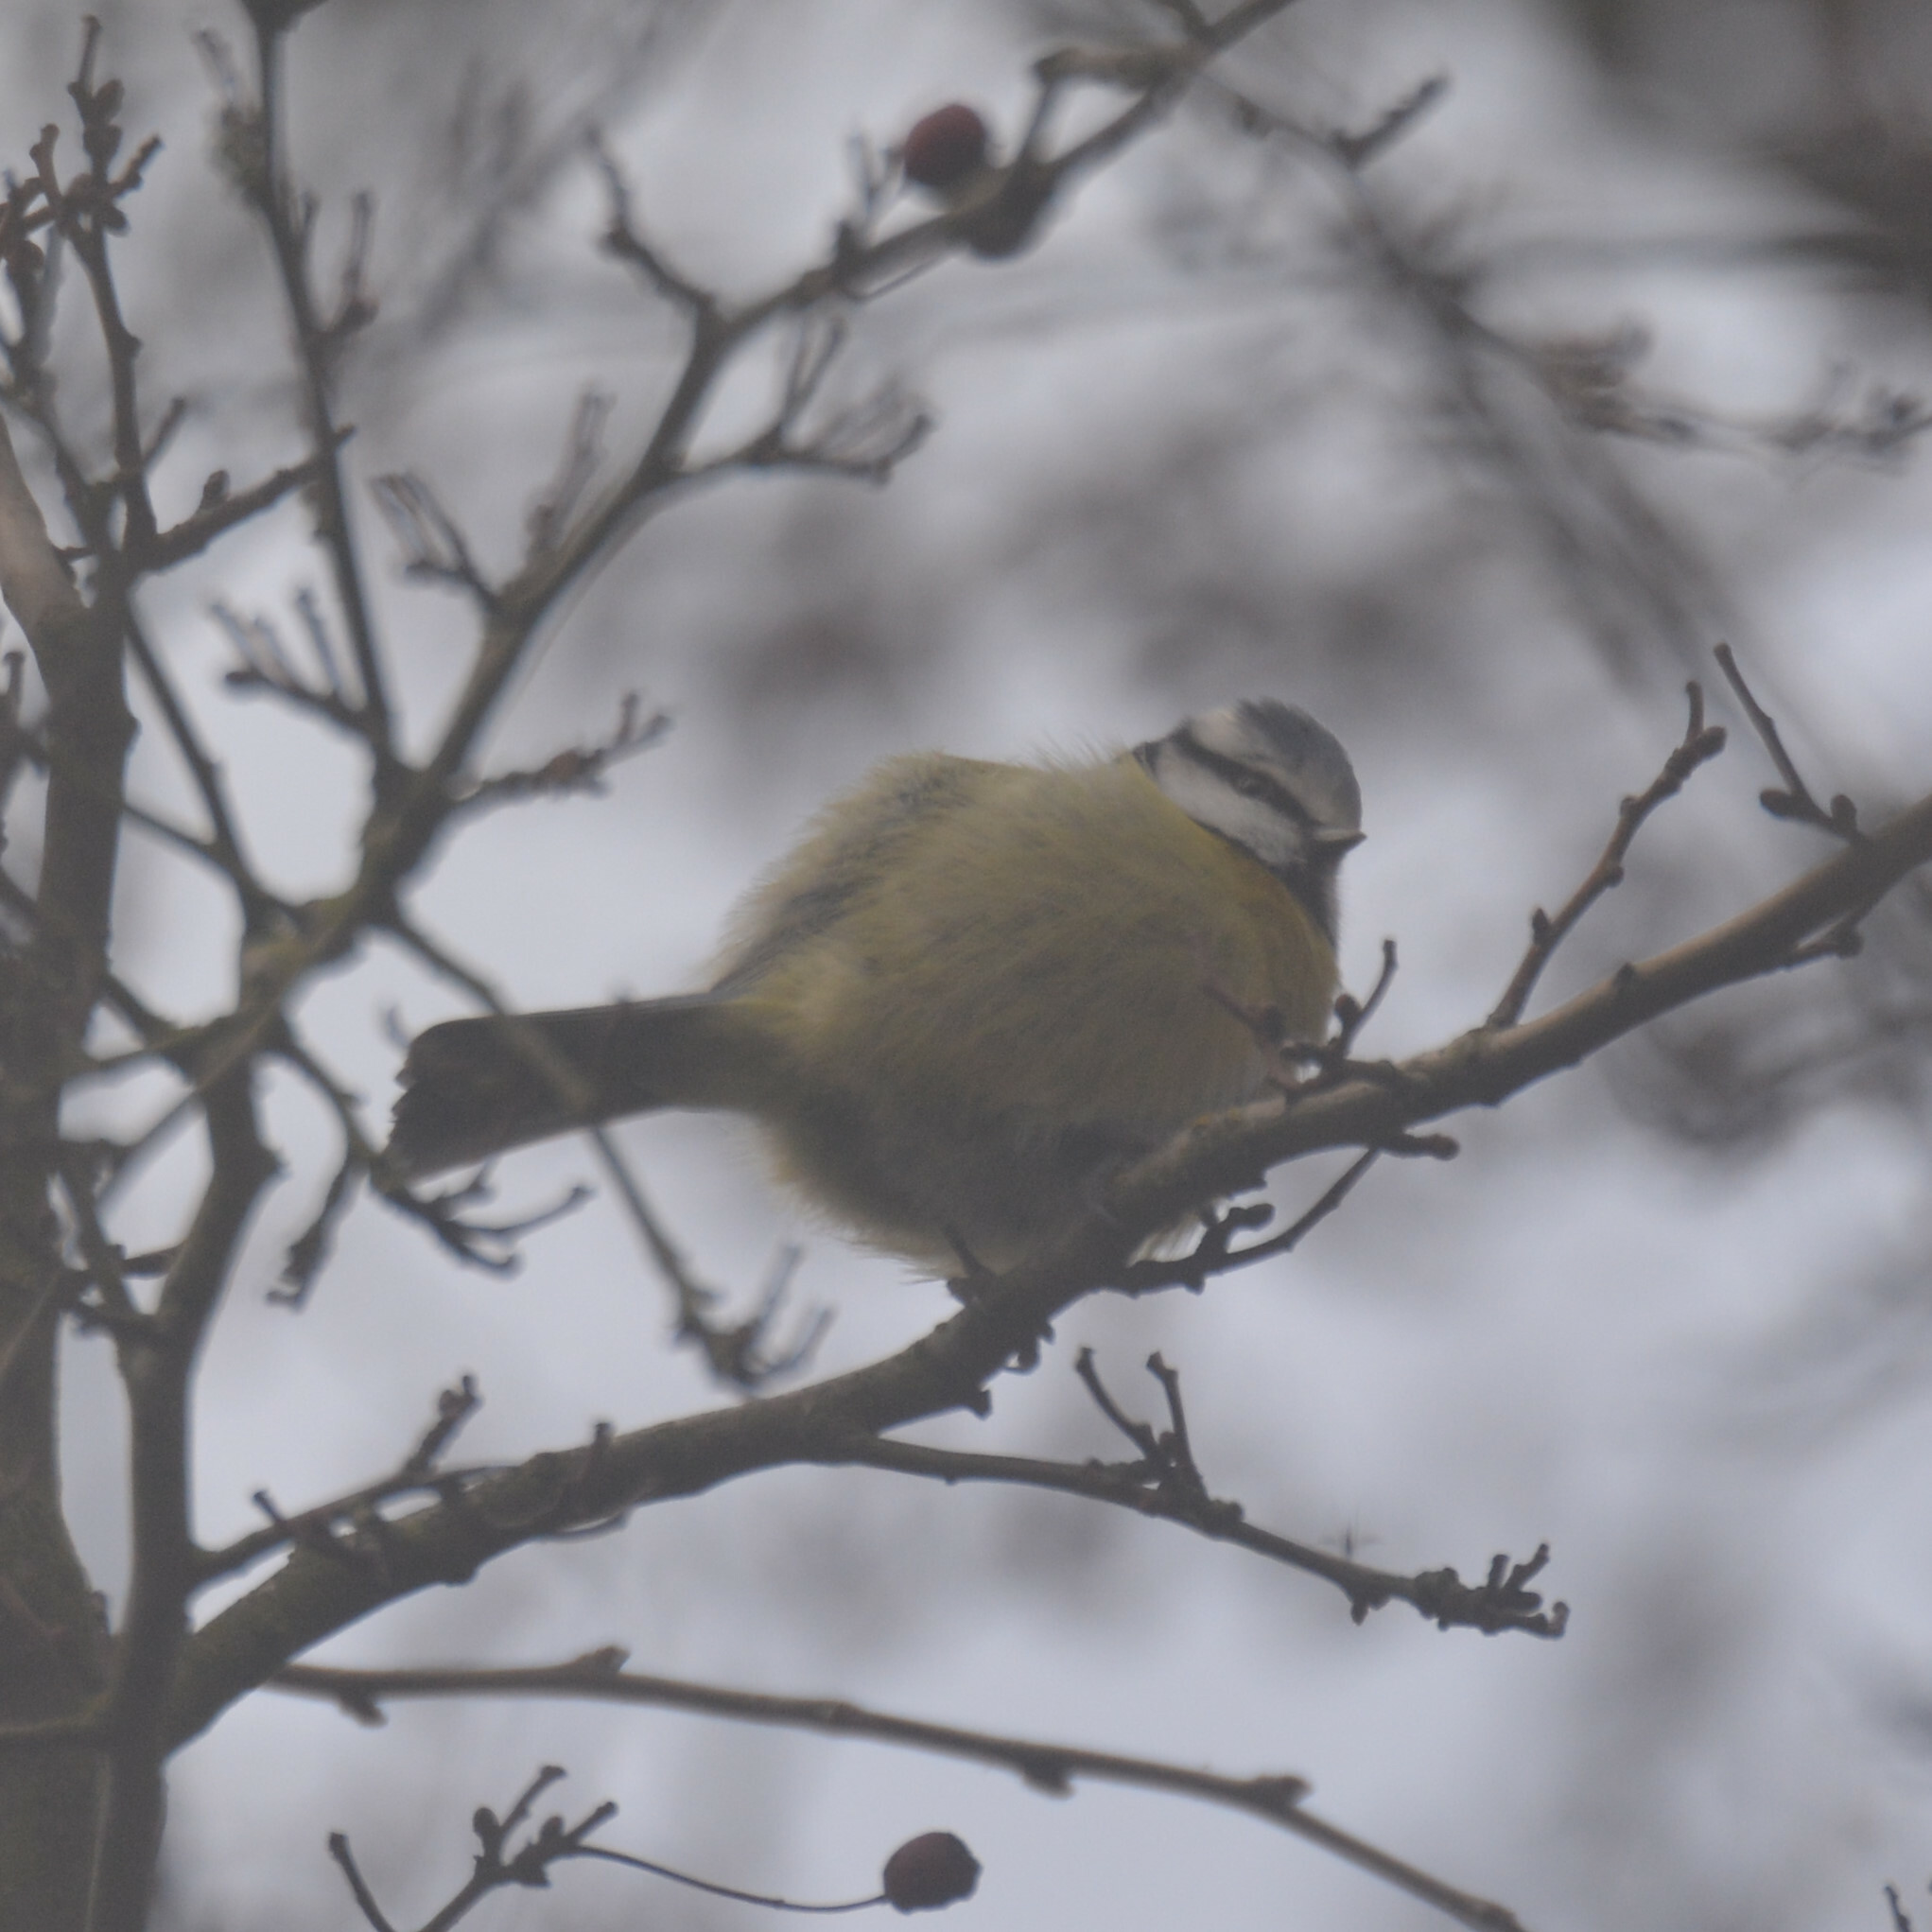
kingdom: Animalia
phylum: Chordata
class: Aves
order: Passeriformes
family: Paridae
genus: Cyanistes
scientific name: Cyanistes caeruleus
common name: Eurasian blue tit
